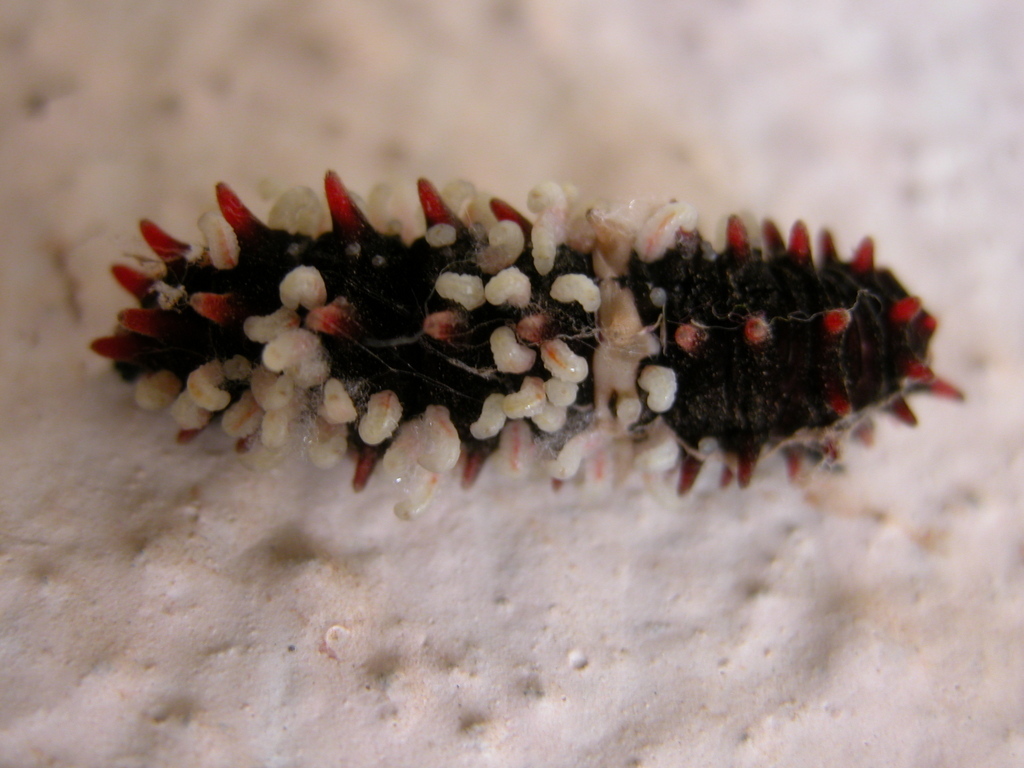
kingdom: Animalia
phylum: Arthropoda
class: Insecta
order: Lepidoptera
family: Papilionidae
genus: Pachliopta
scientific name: Pachliopta aristolochiae
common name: Common rose
